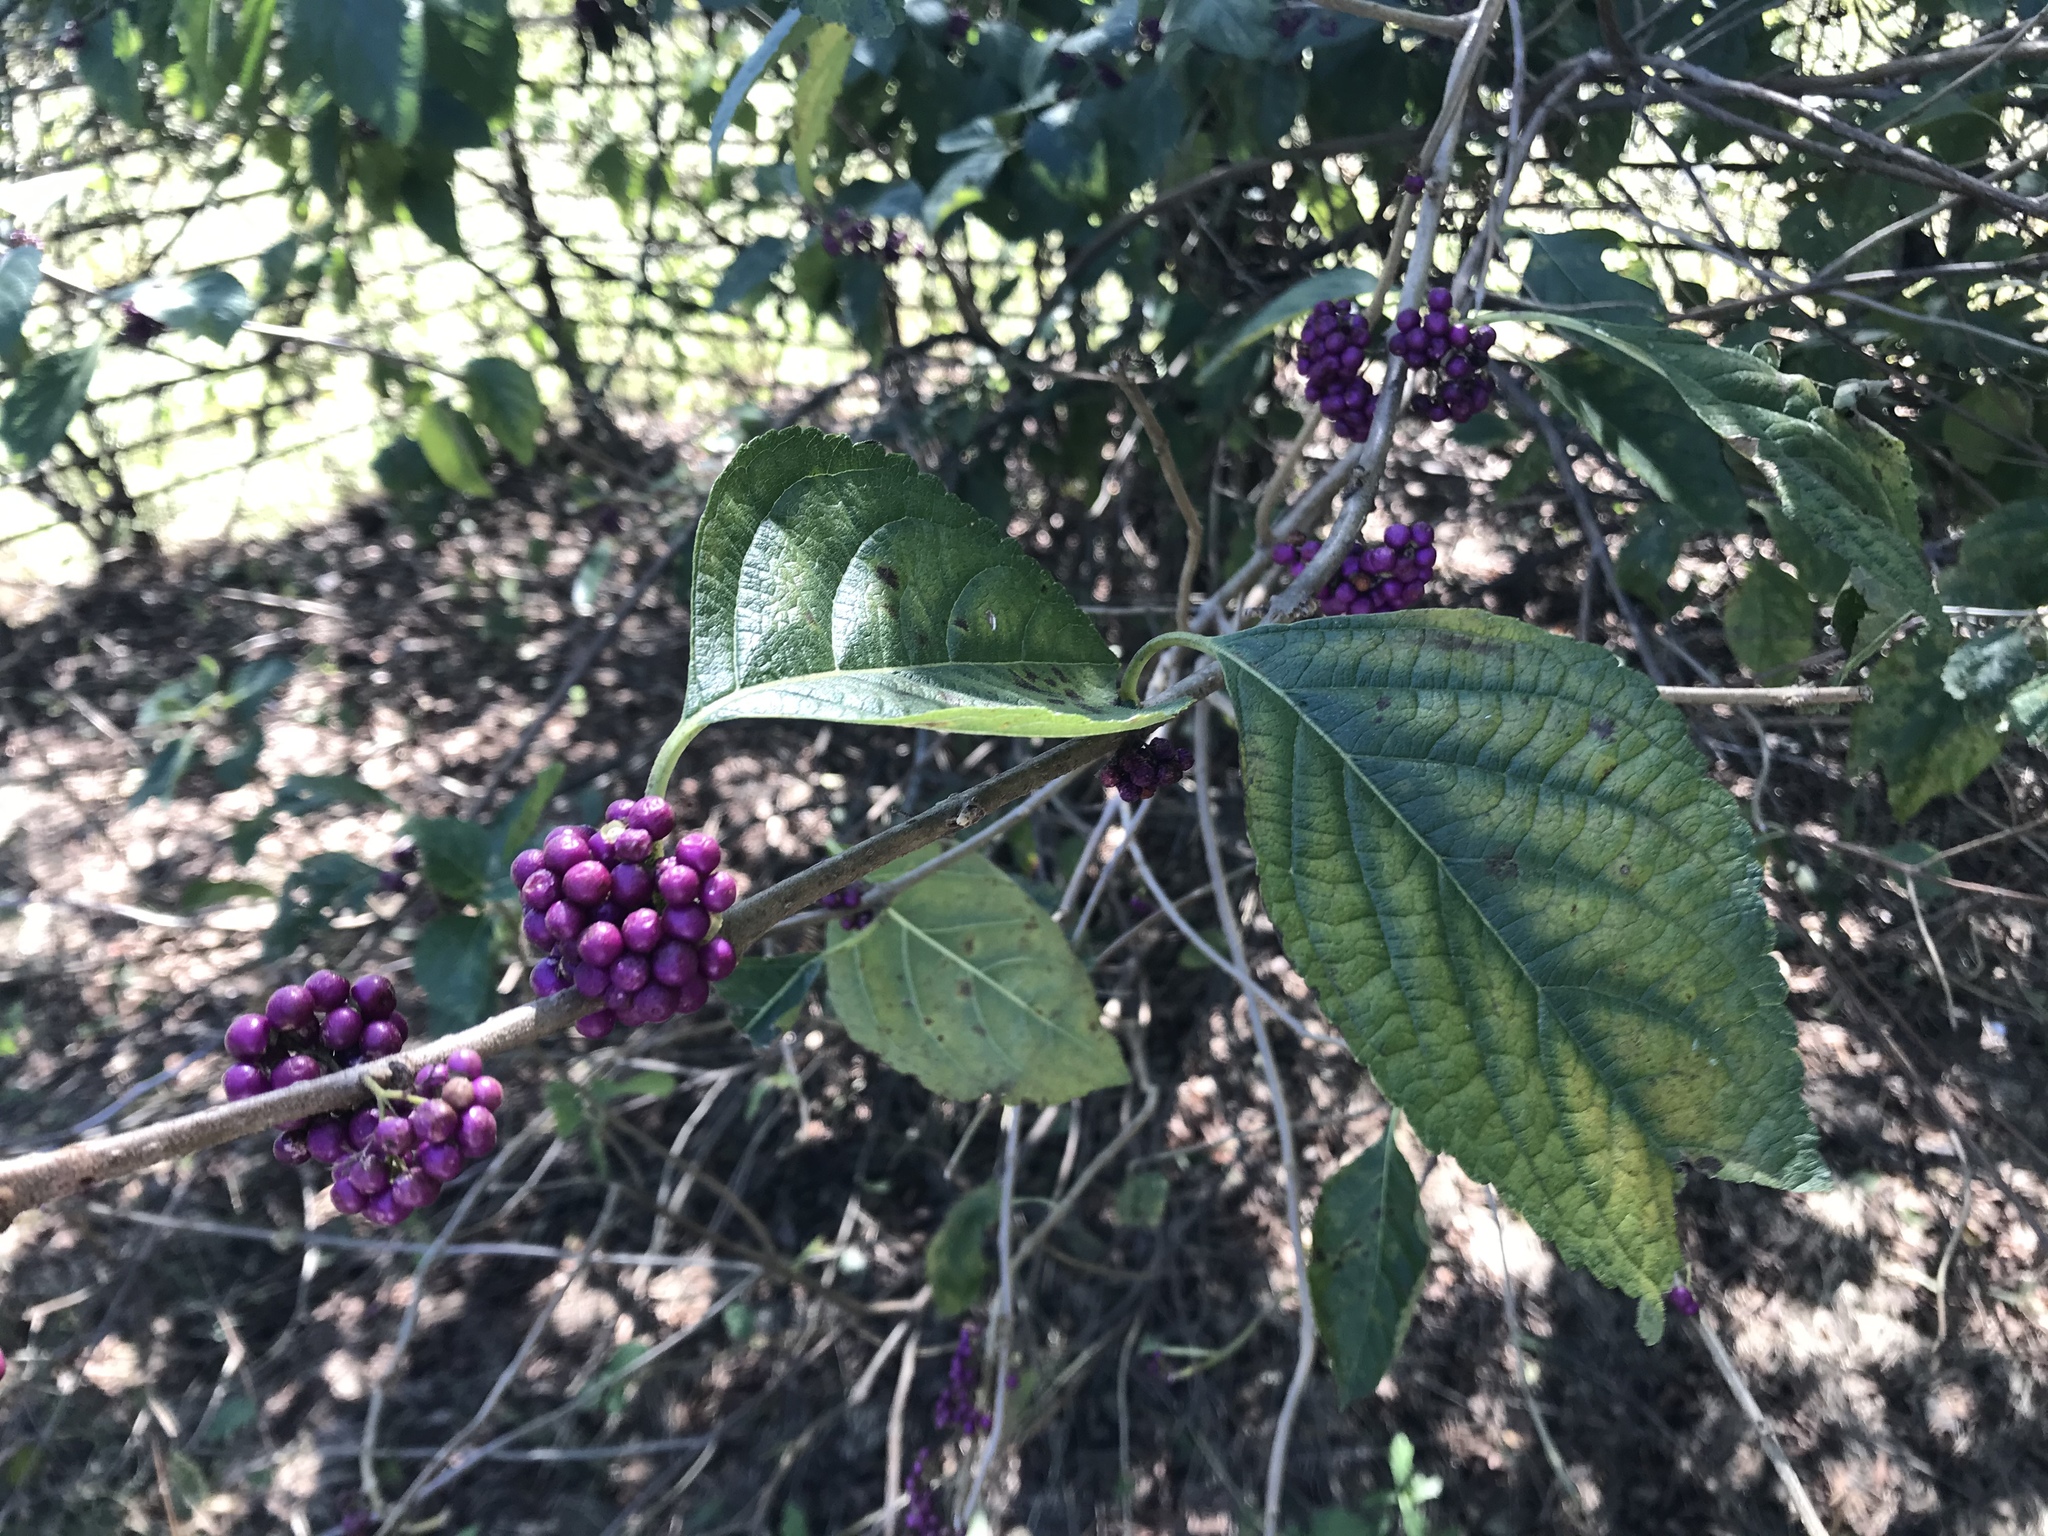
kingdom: Plantae
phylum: Tracheophyta
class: Magnoliopsida
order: Lamiales
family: Lamiaceae
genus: Callicarpa
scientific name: Callicarpa americana
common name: American beautyberry
